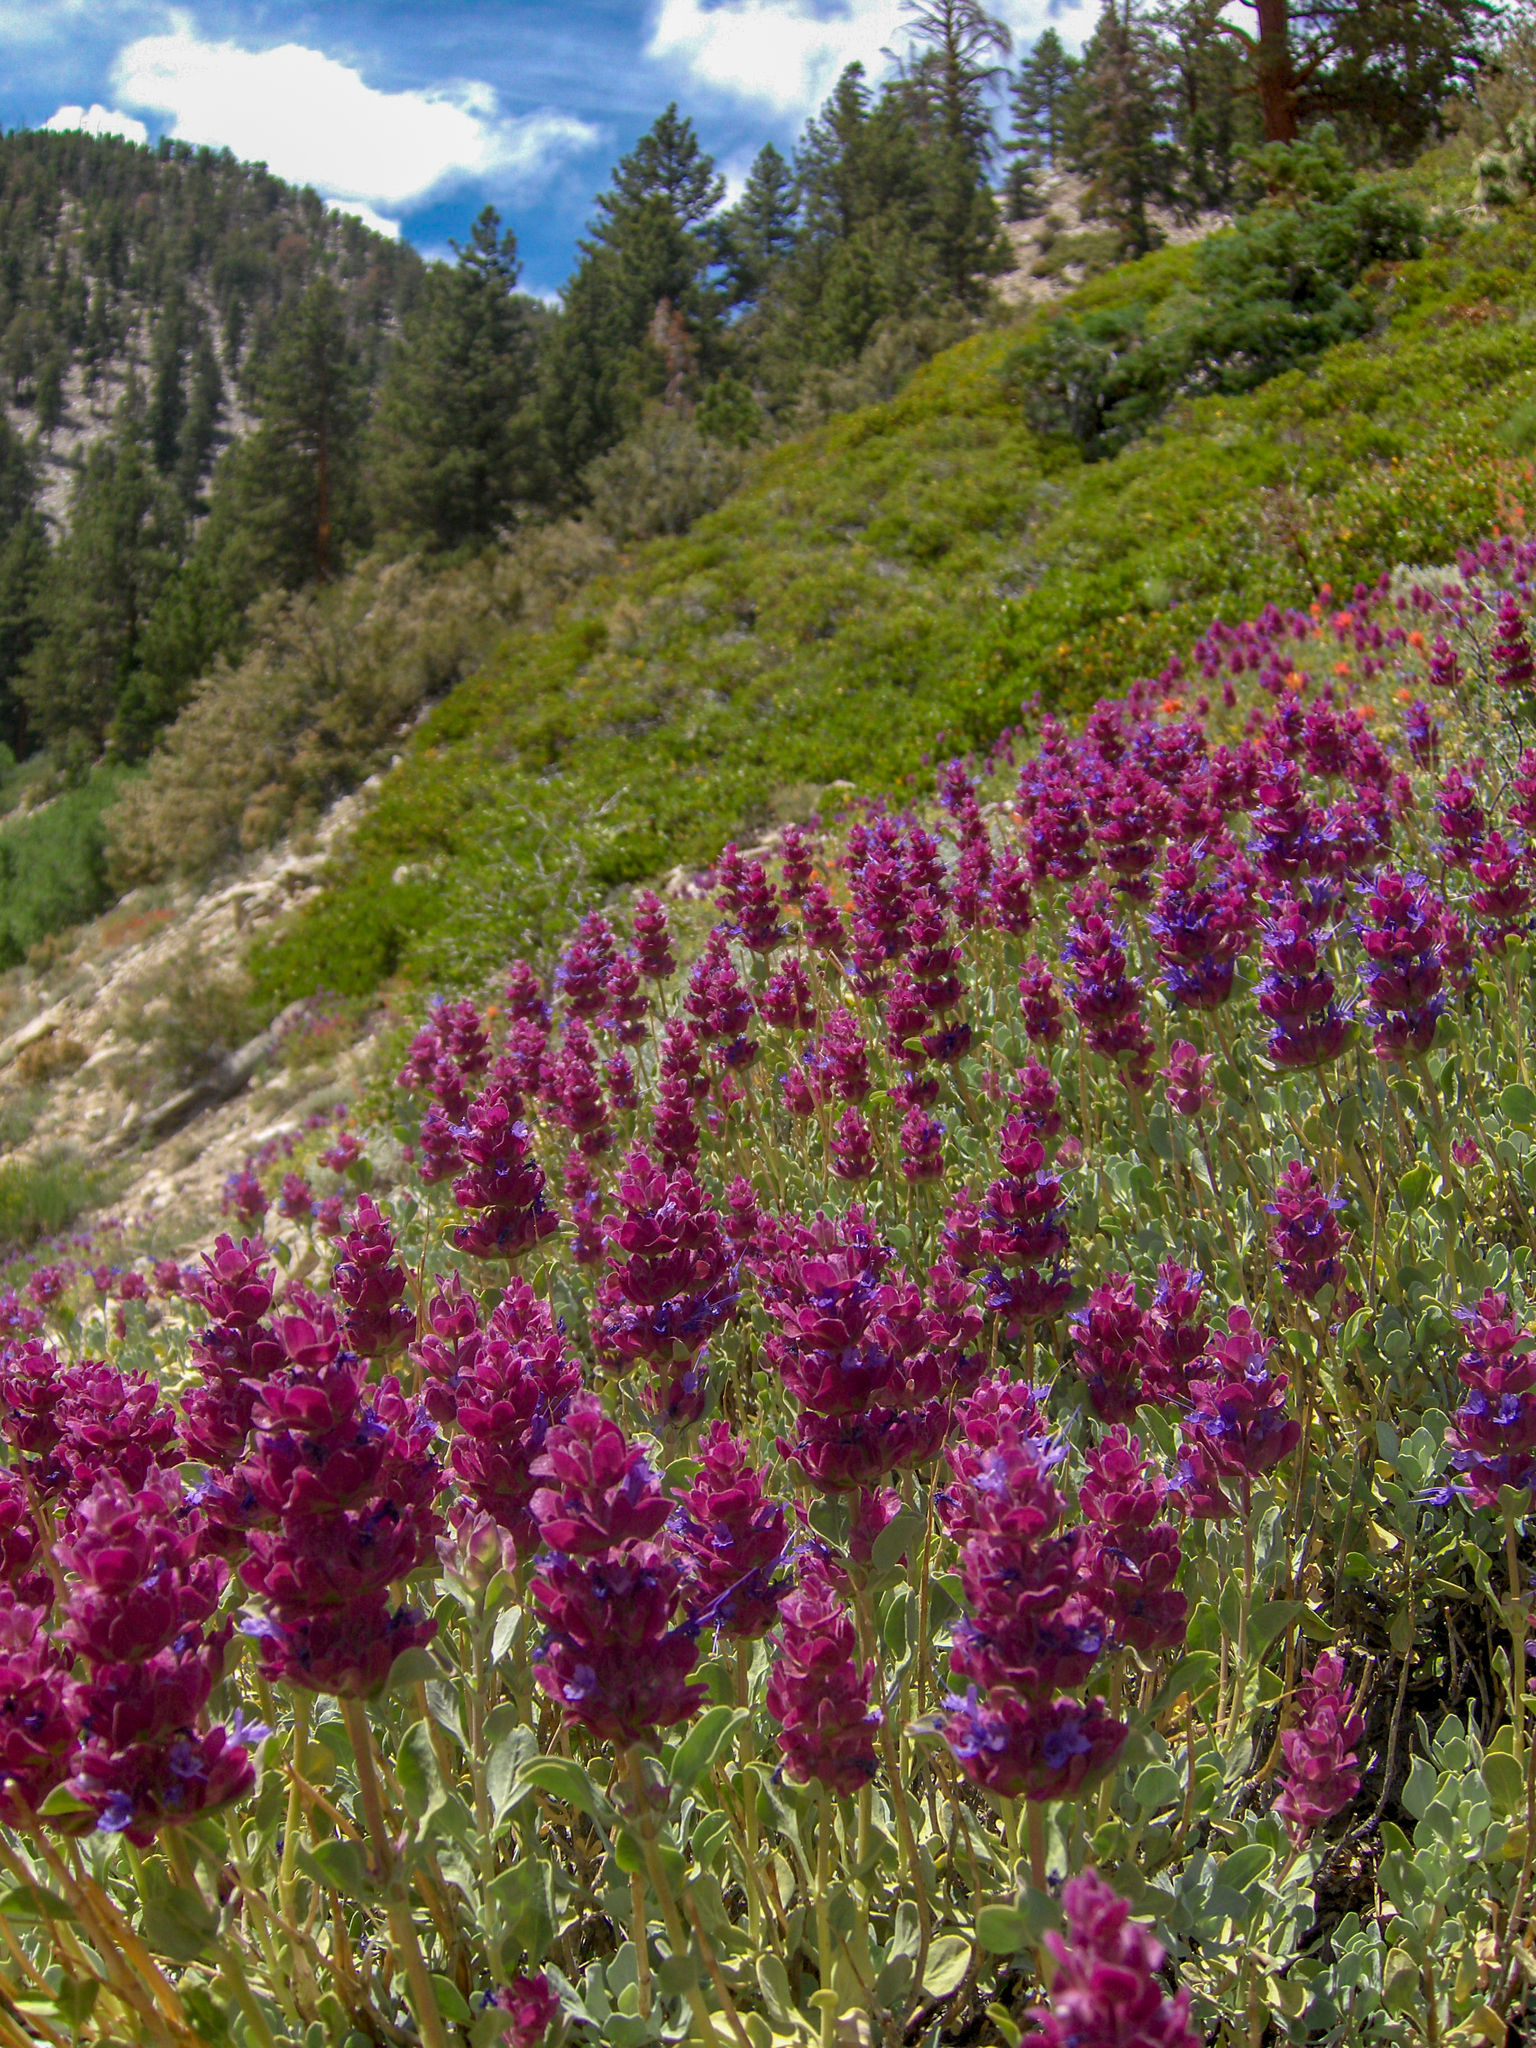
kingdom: Plantae
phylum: Tracheophyta
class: Magnoliopsida
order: Lamiales
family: Lamiaceae
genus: Salvia
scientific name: Salvia pachyphylla
